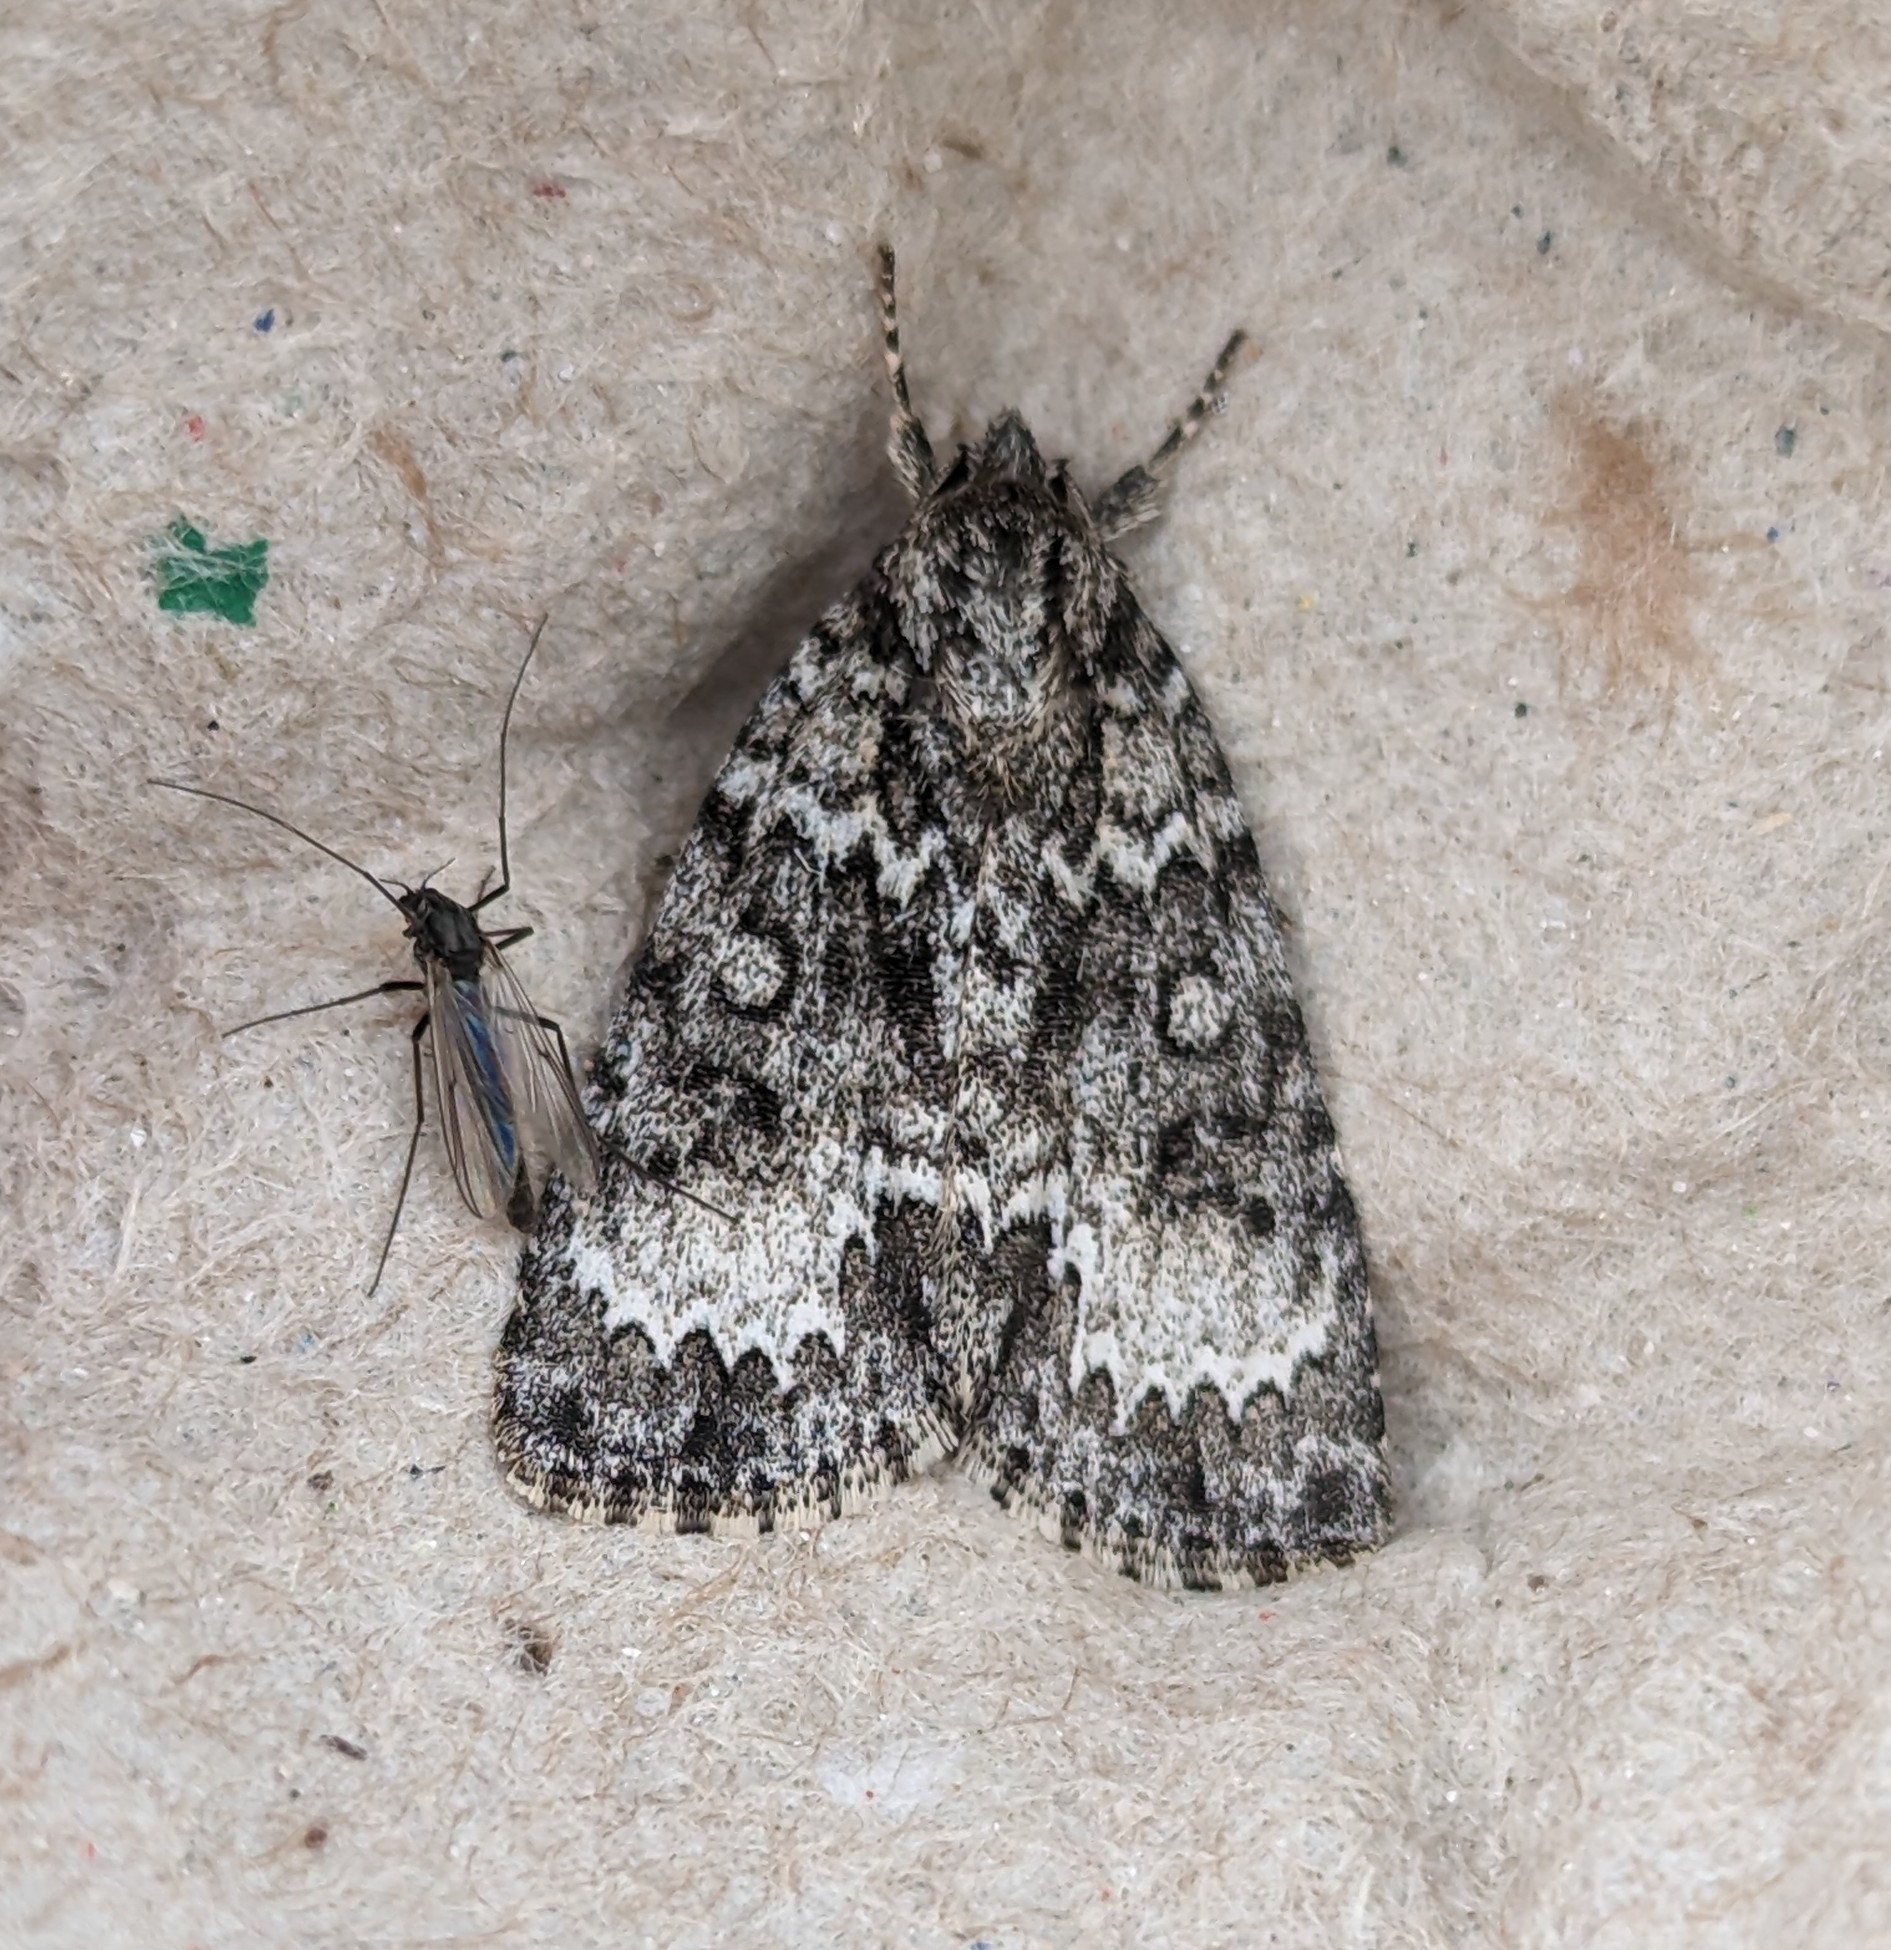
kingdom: Animalia
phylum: Arthropoda
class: Insecta
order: Lepidoptera
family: Noctuidae
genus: Acronicta
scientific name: Acronicta fragilis
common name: Fragile dagger
